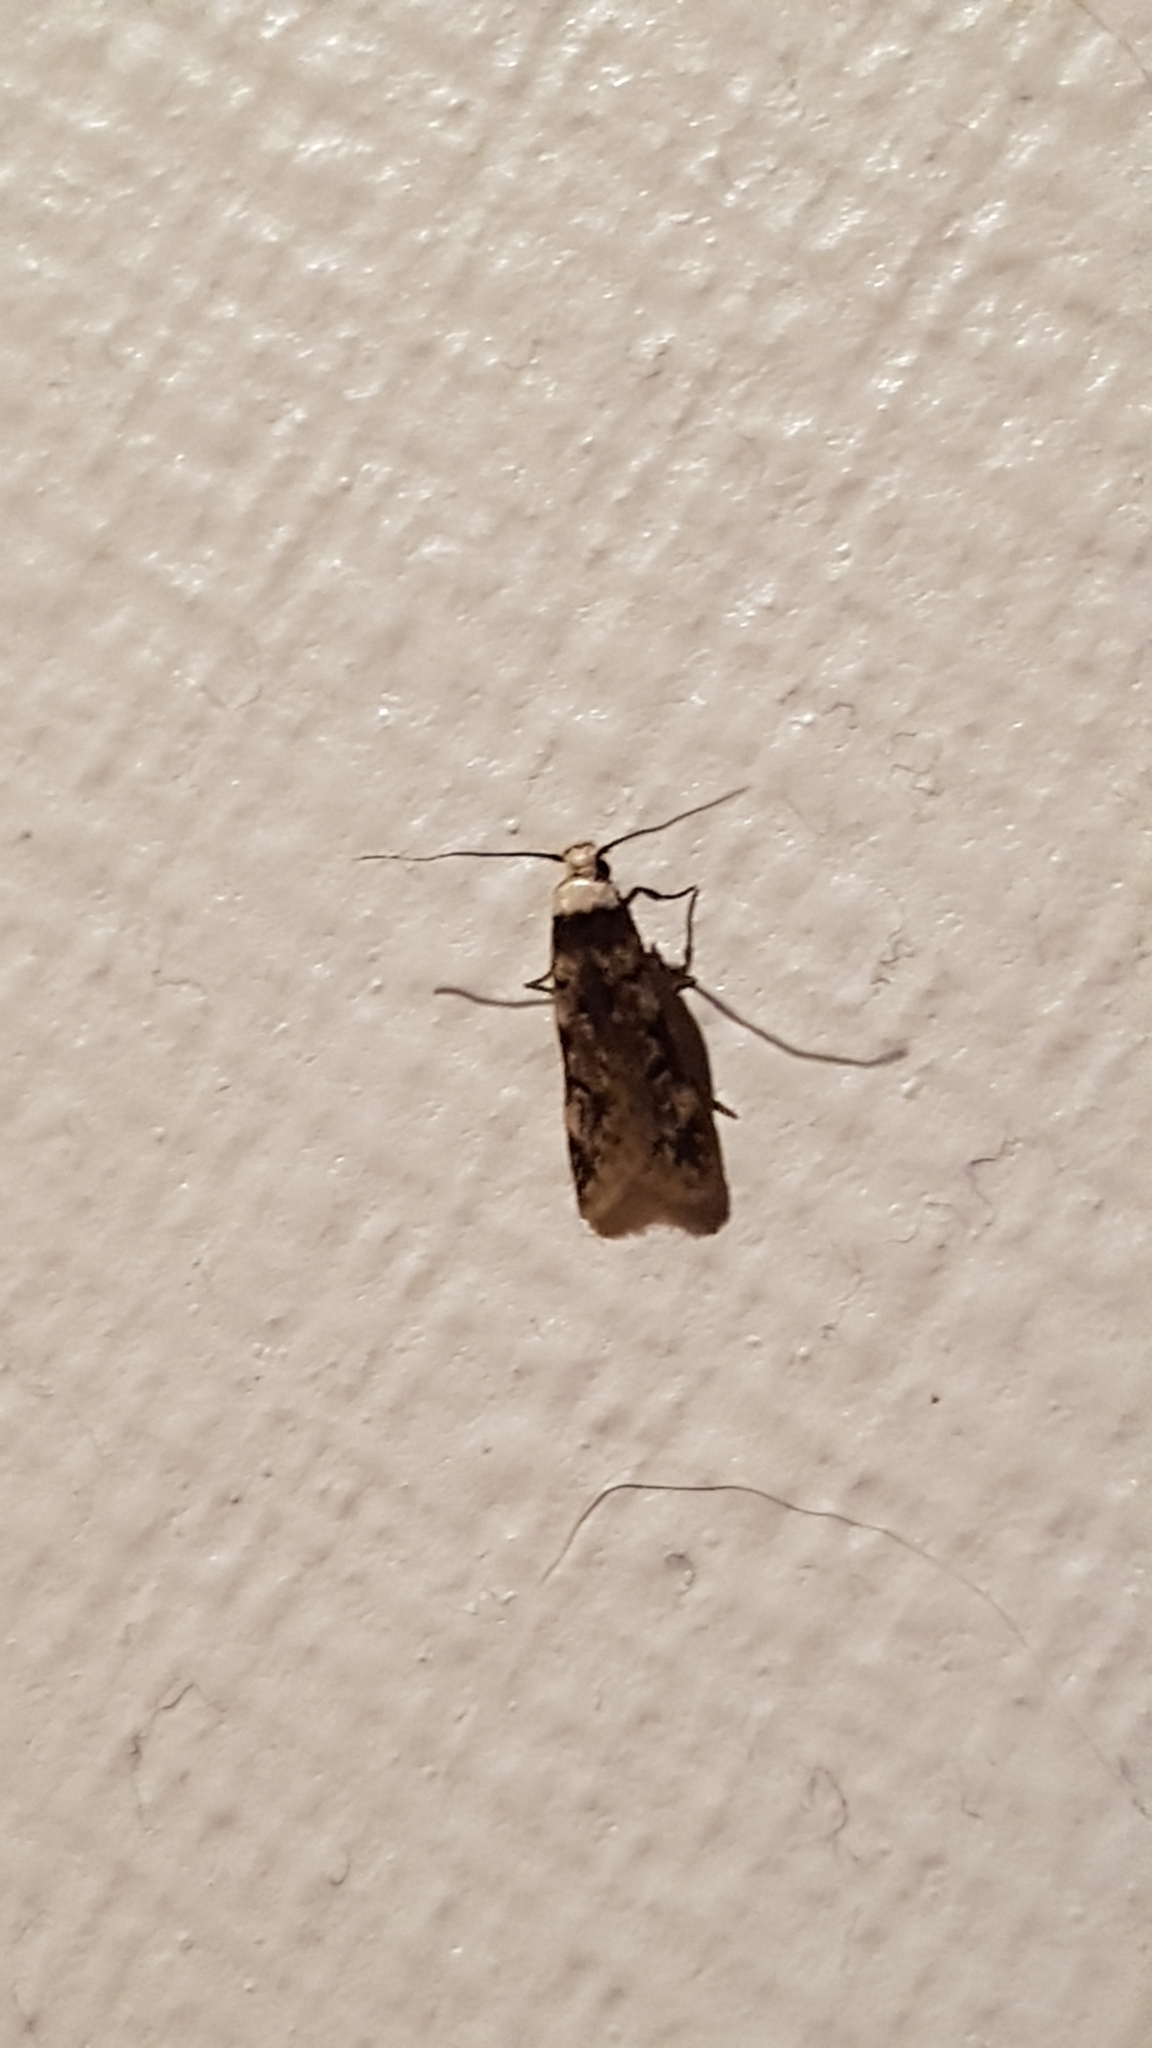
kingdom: Animalia
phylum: Arthropoda
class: Insecta
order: Lepidoptera
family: Oecophoridae
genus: Endrosis
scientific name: Endrosis sarcitrella
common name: White-shouldered house moth
